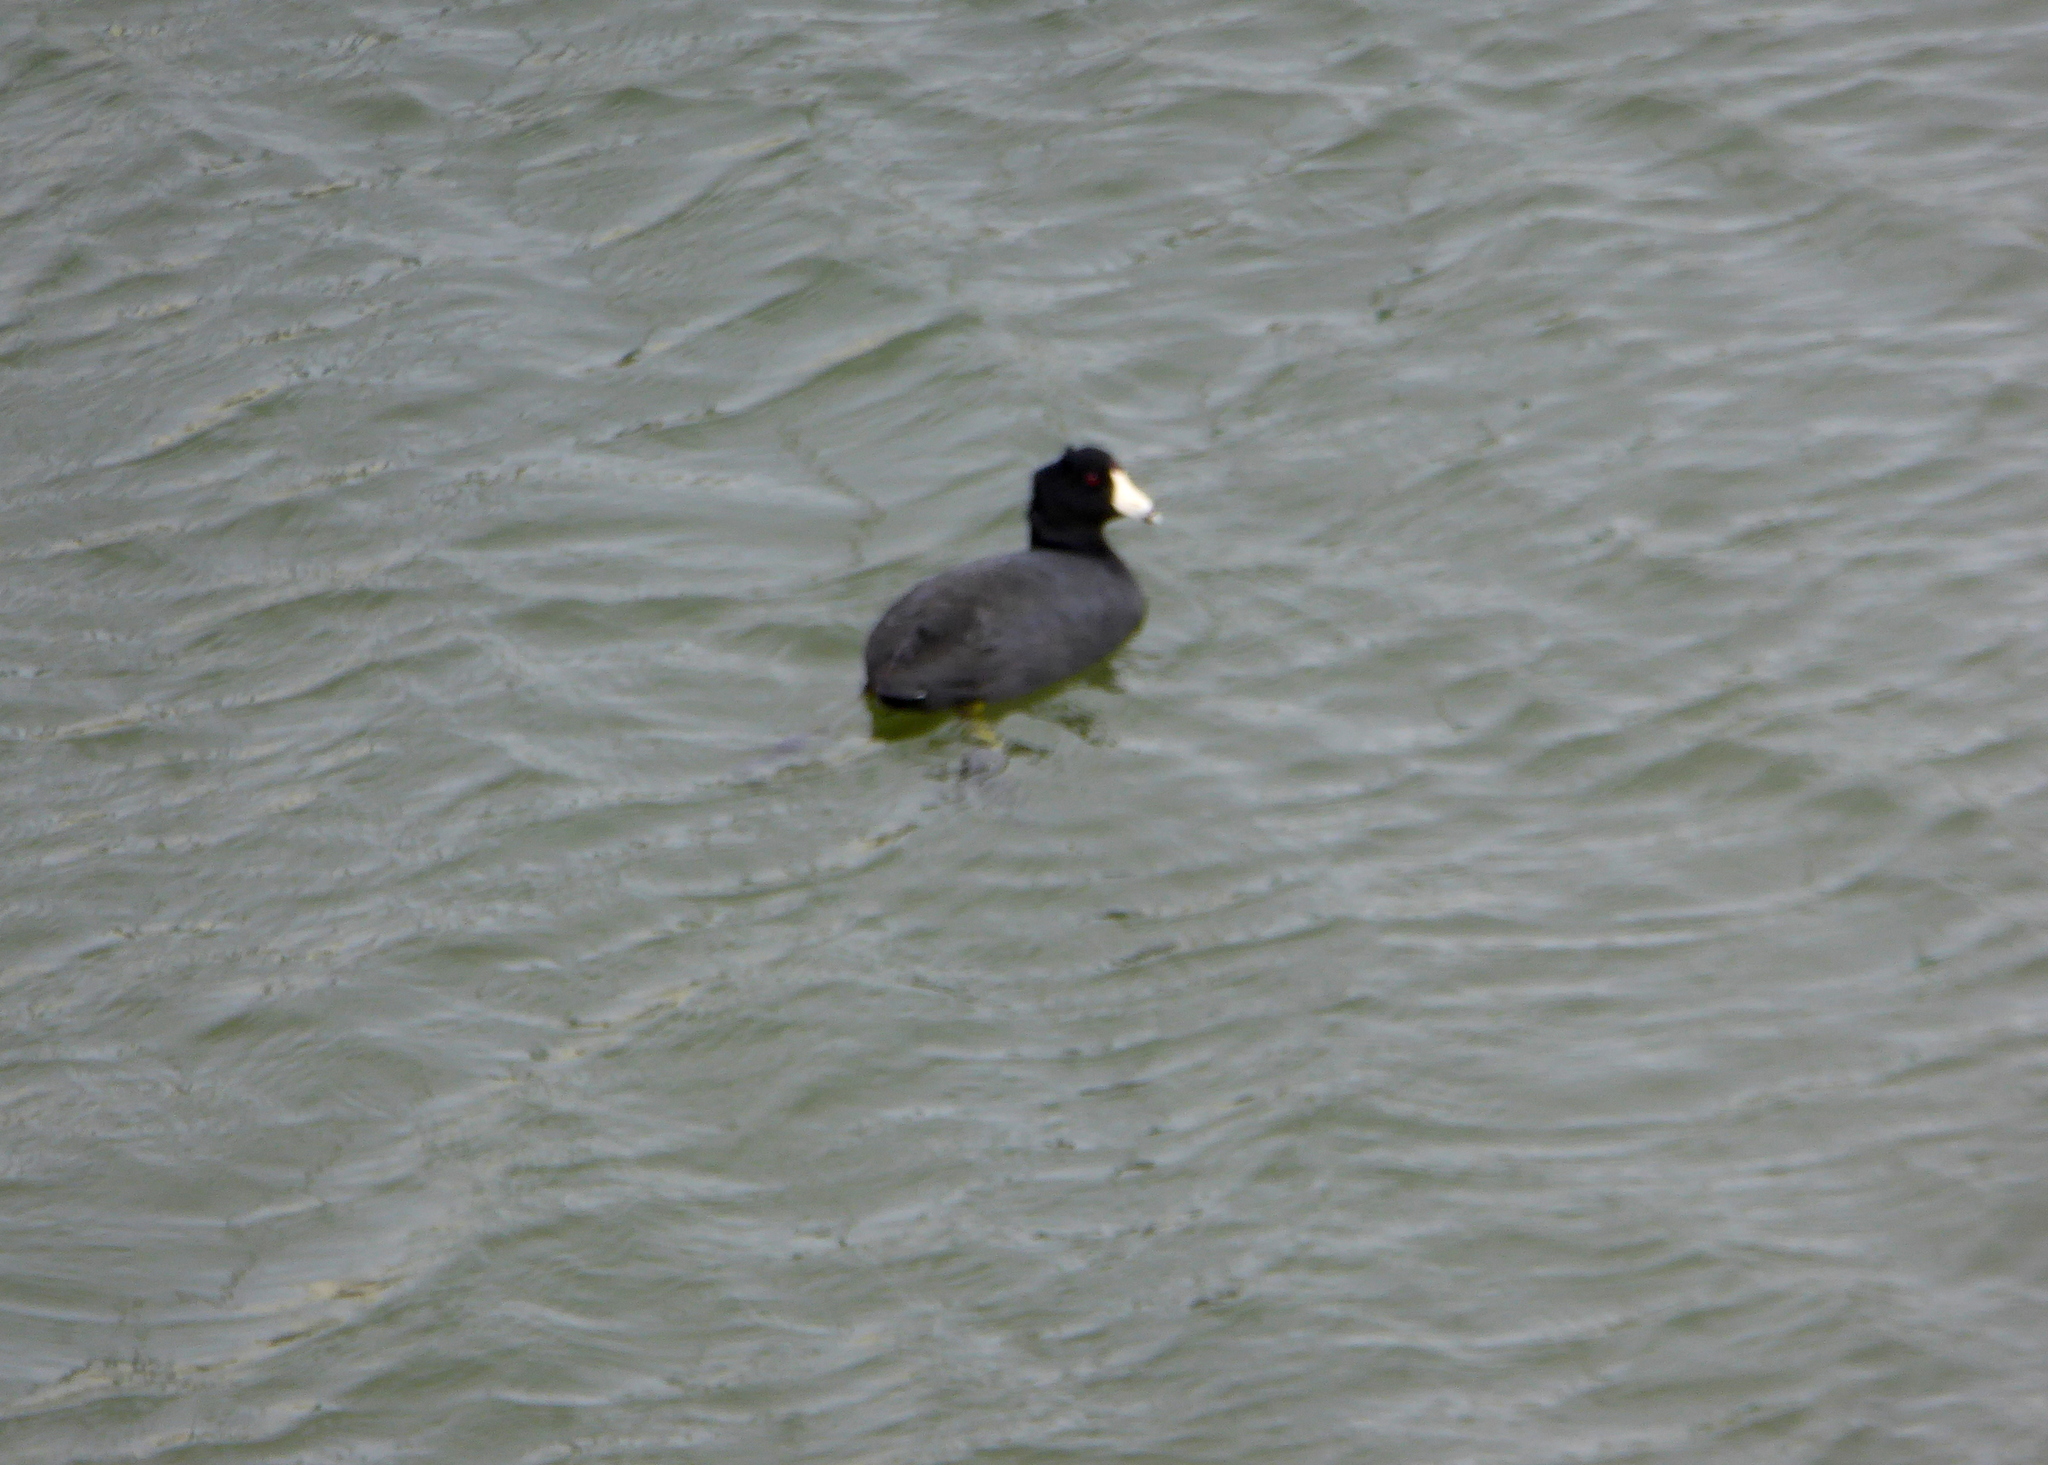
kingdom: Animalia
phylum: Chordata
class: Aves
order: Gruiformes
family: Rallidae
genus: Fulica
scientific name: Fulica americana
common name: American coot
